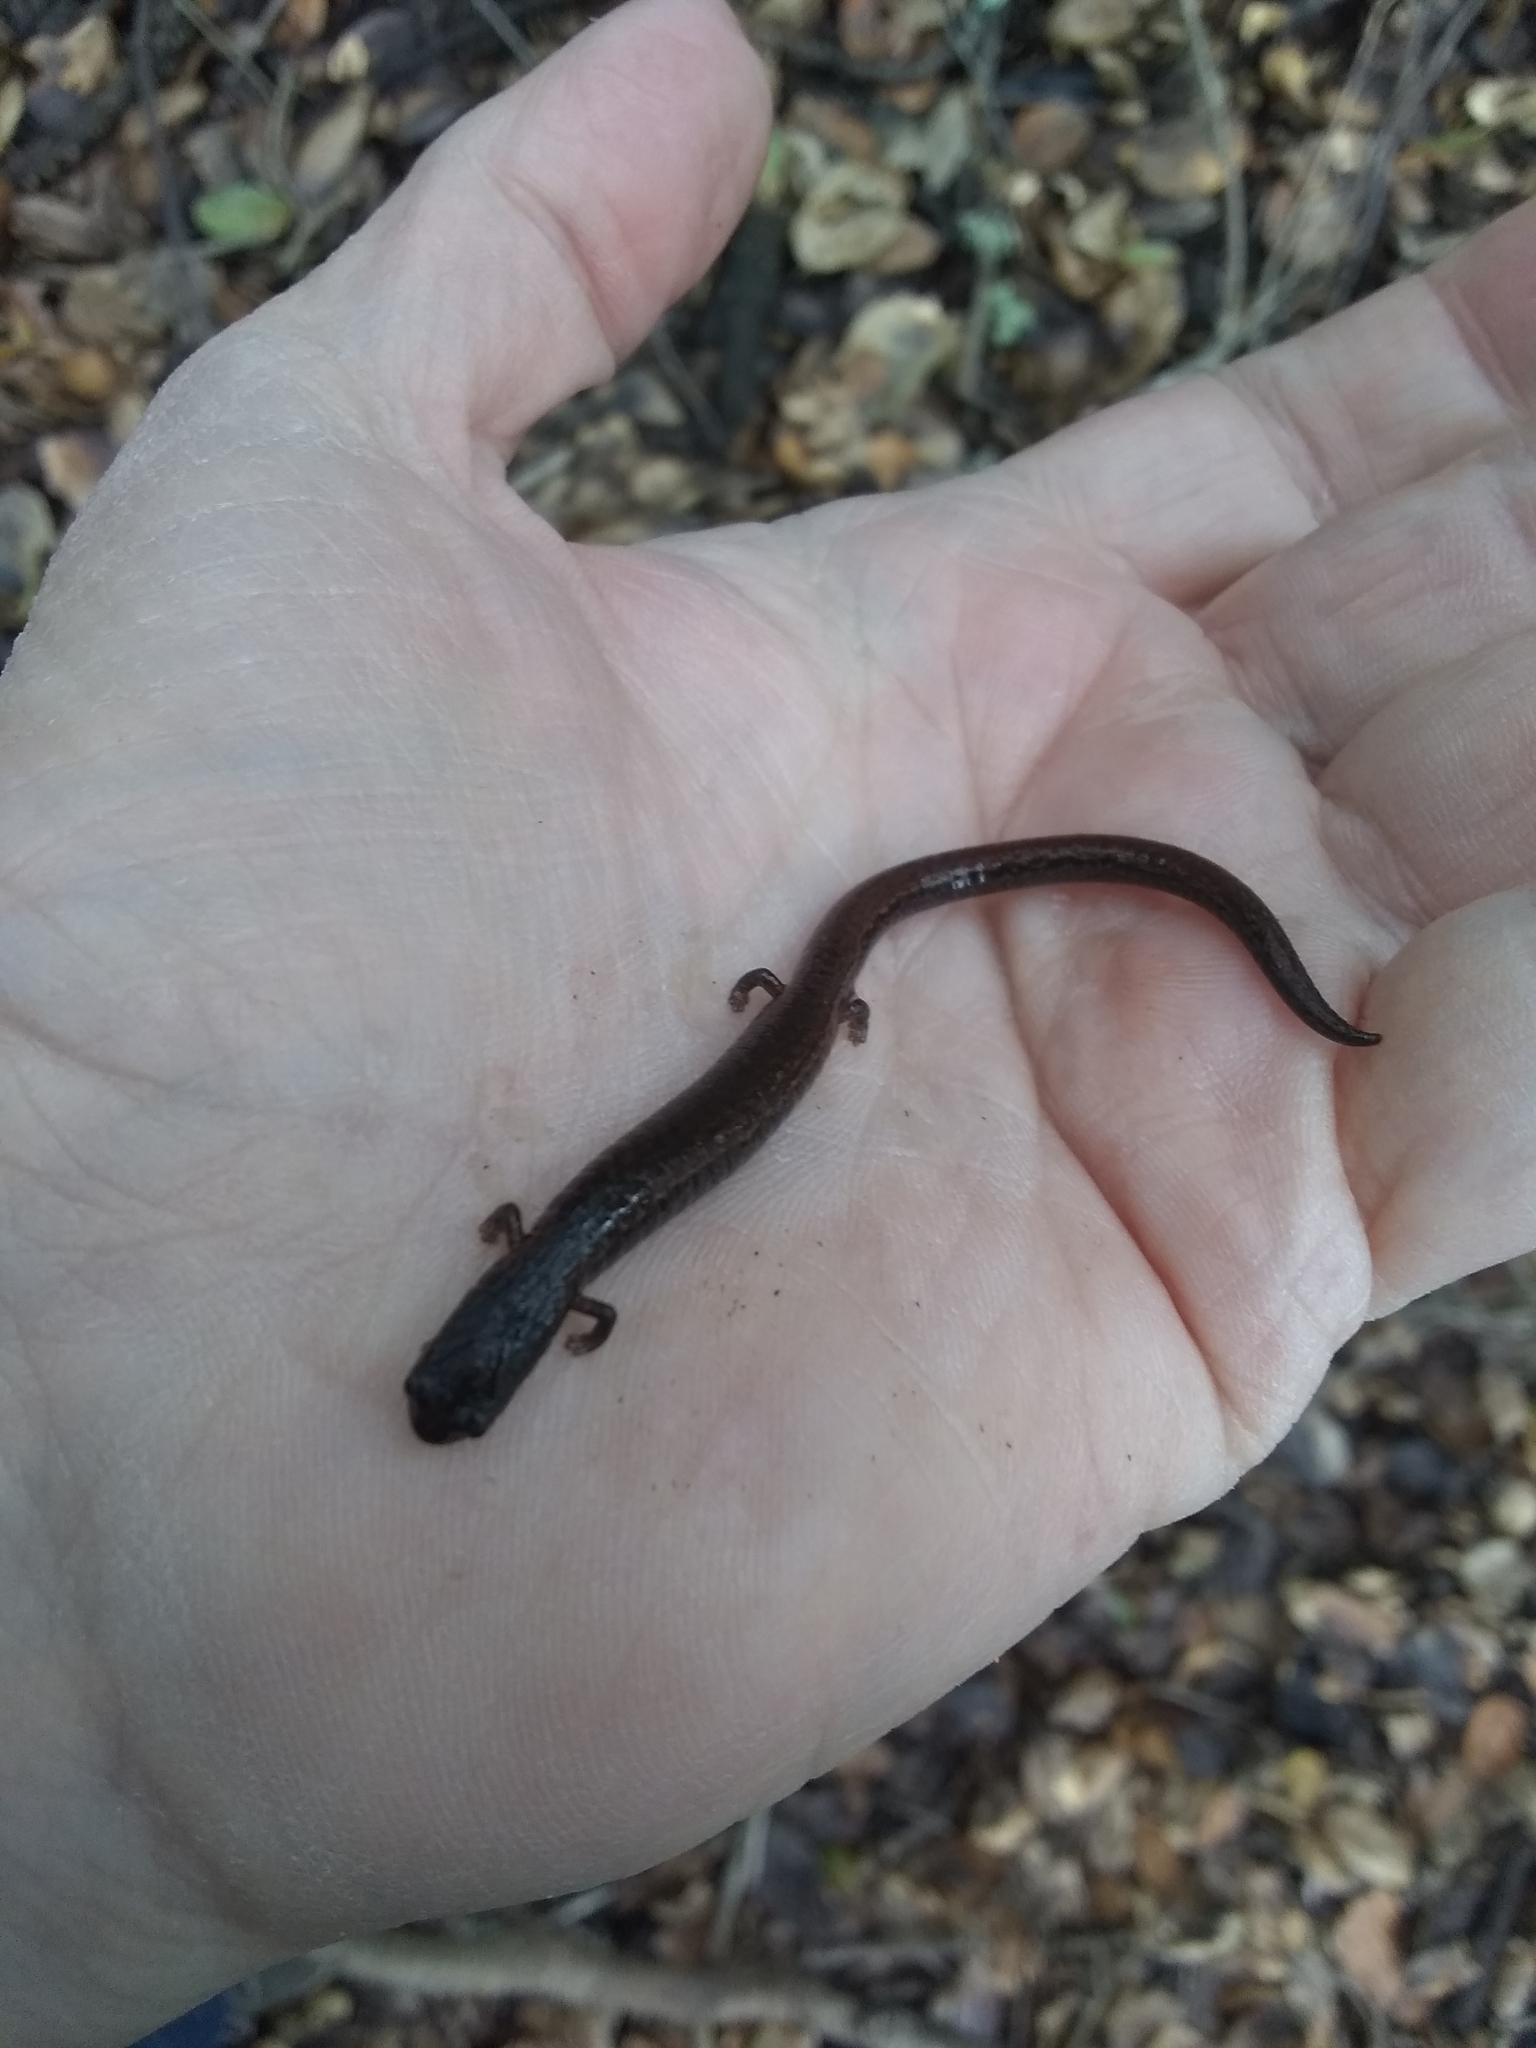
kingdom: Animalia
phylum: Chordata
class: Amphibia
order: Caudata
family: Plethodontidae
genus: Batrachoseps
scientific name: Batrachoseps attenuatus
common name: California slender salamander
